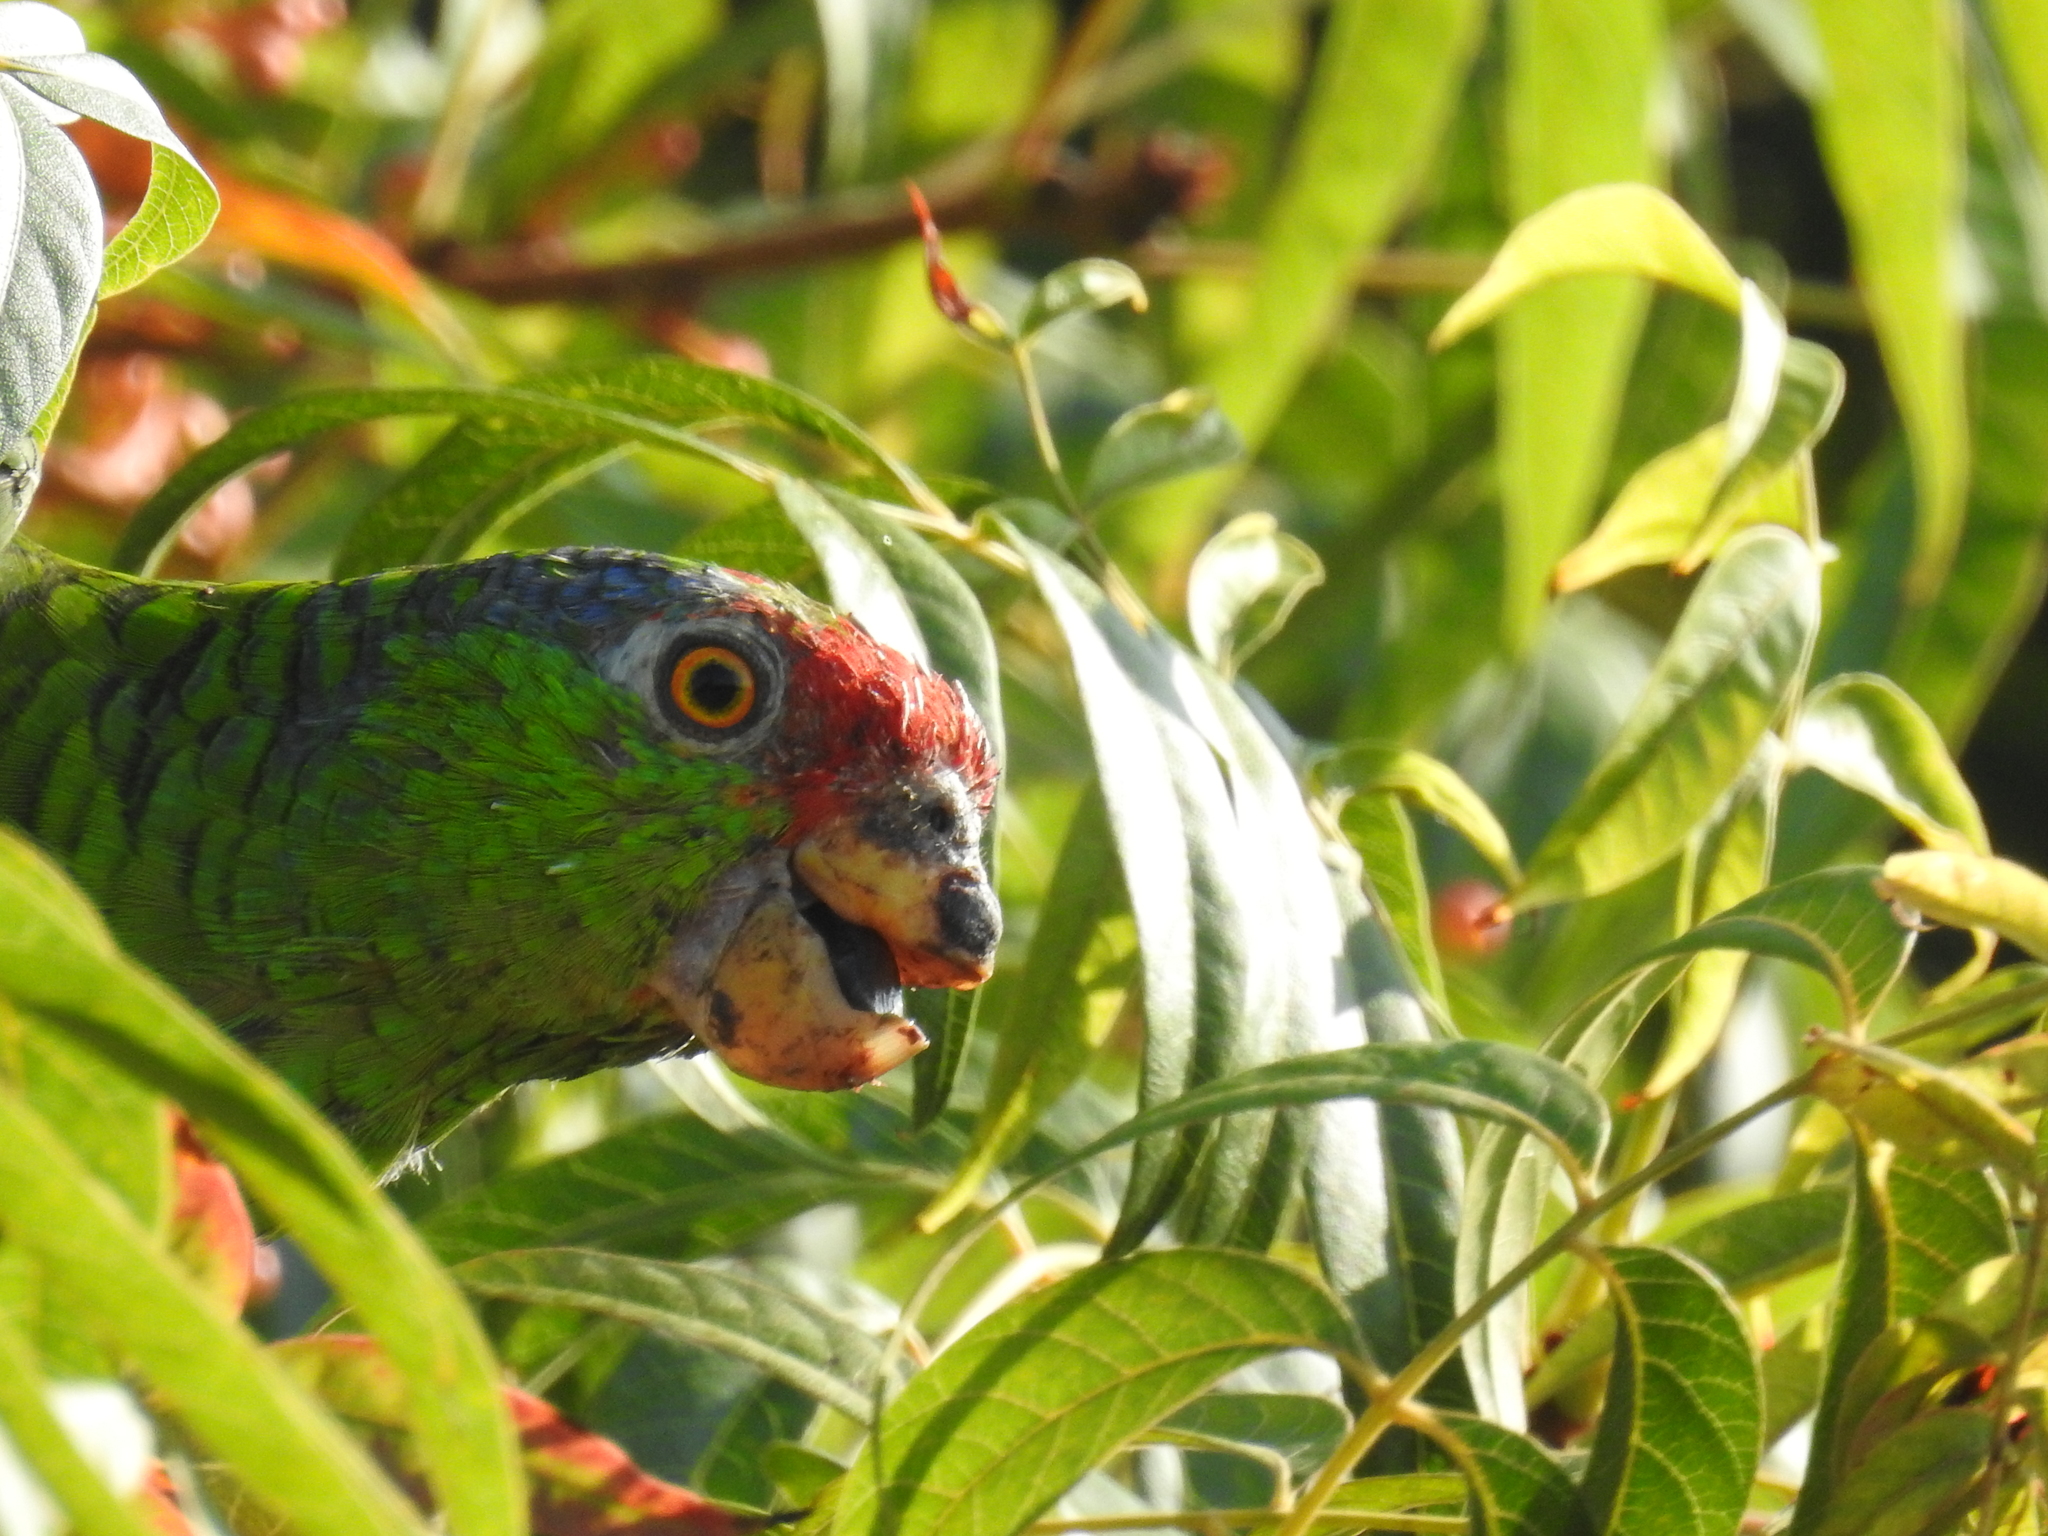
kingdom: Animalia
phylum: Chordata
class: Aves
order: Psittaciformes
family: Psittacidae
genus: Amazona
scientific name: Amazona viridigenalis
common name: Red-crowned amazon
